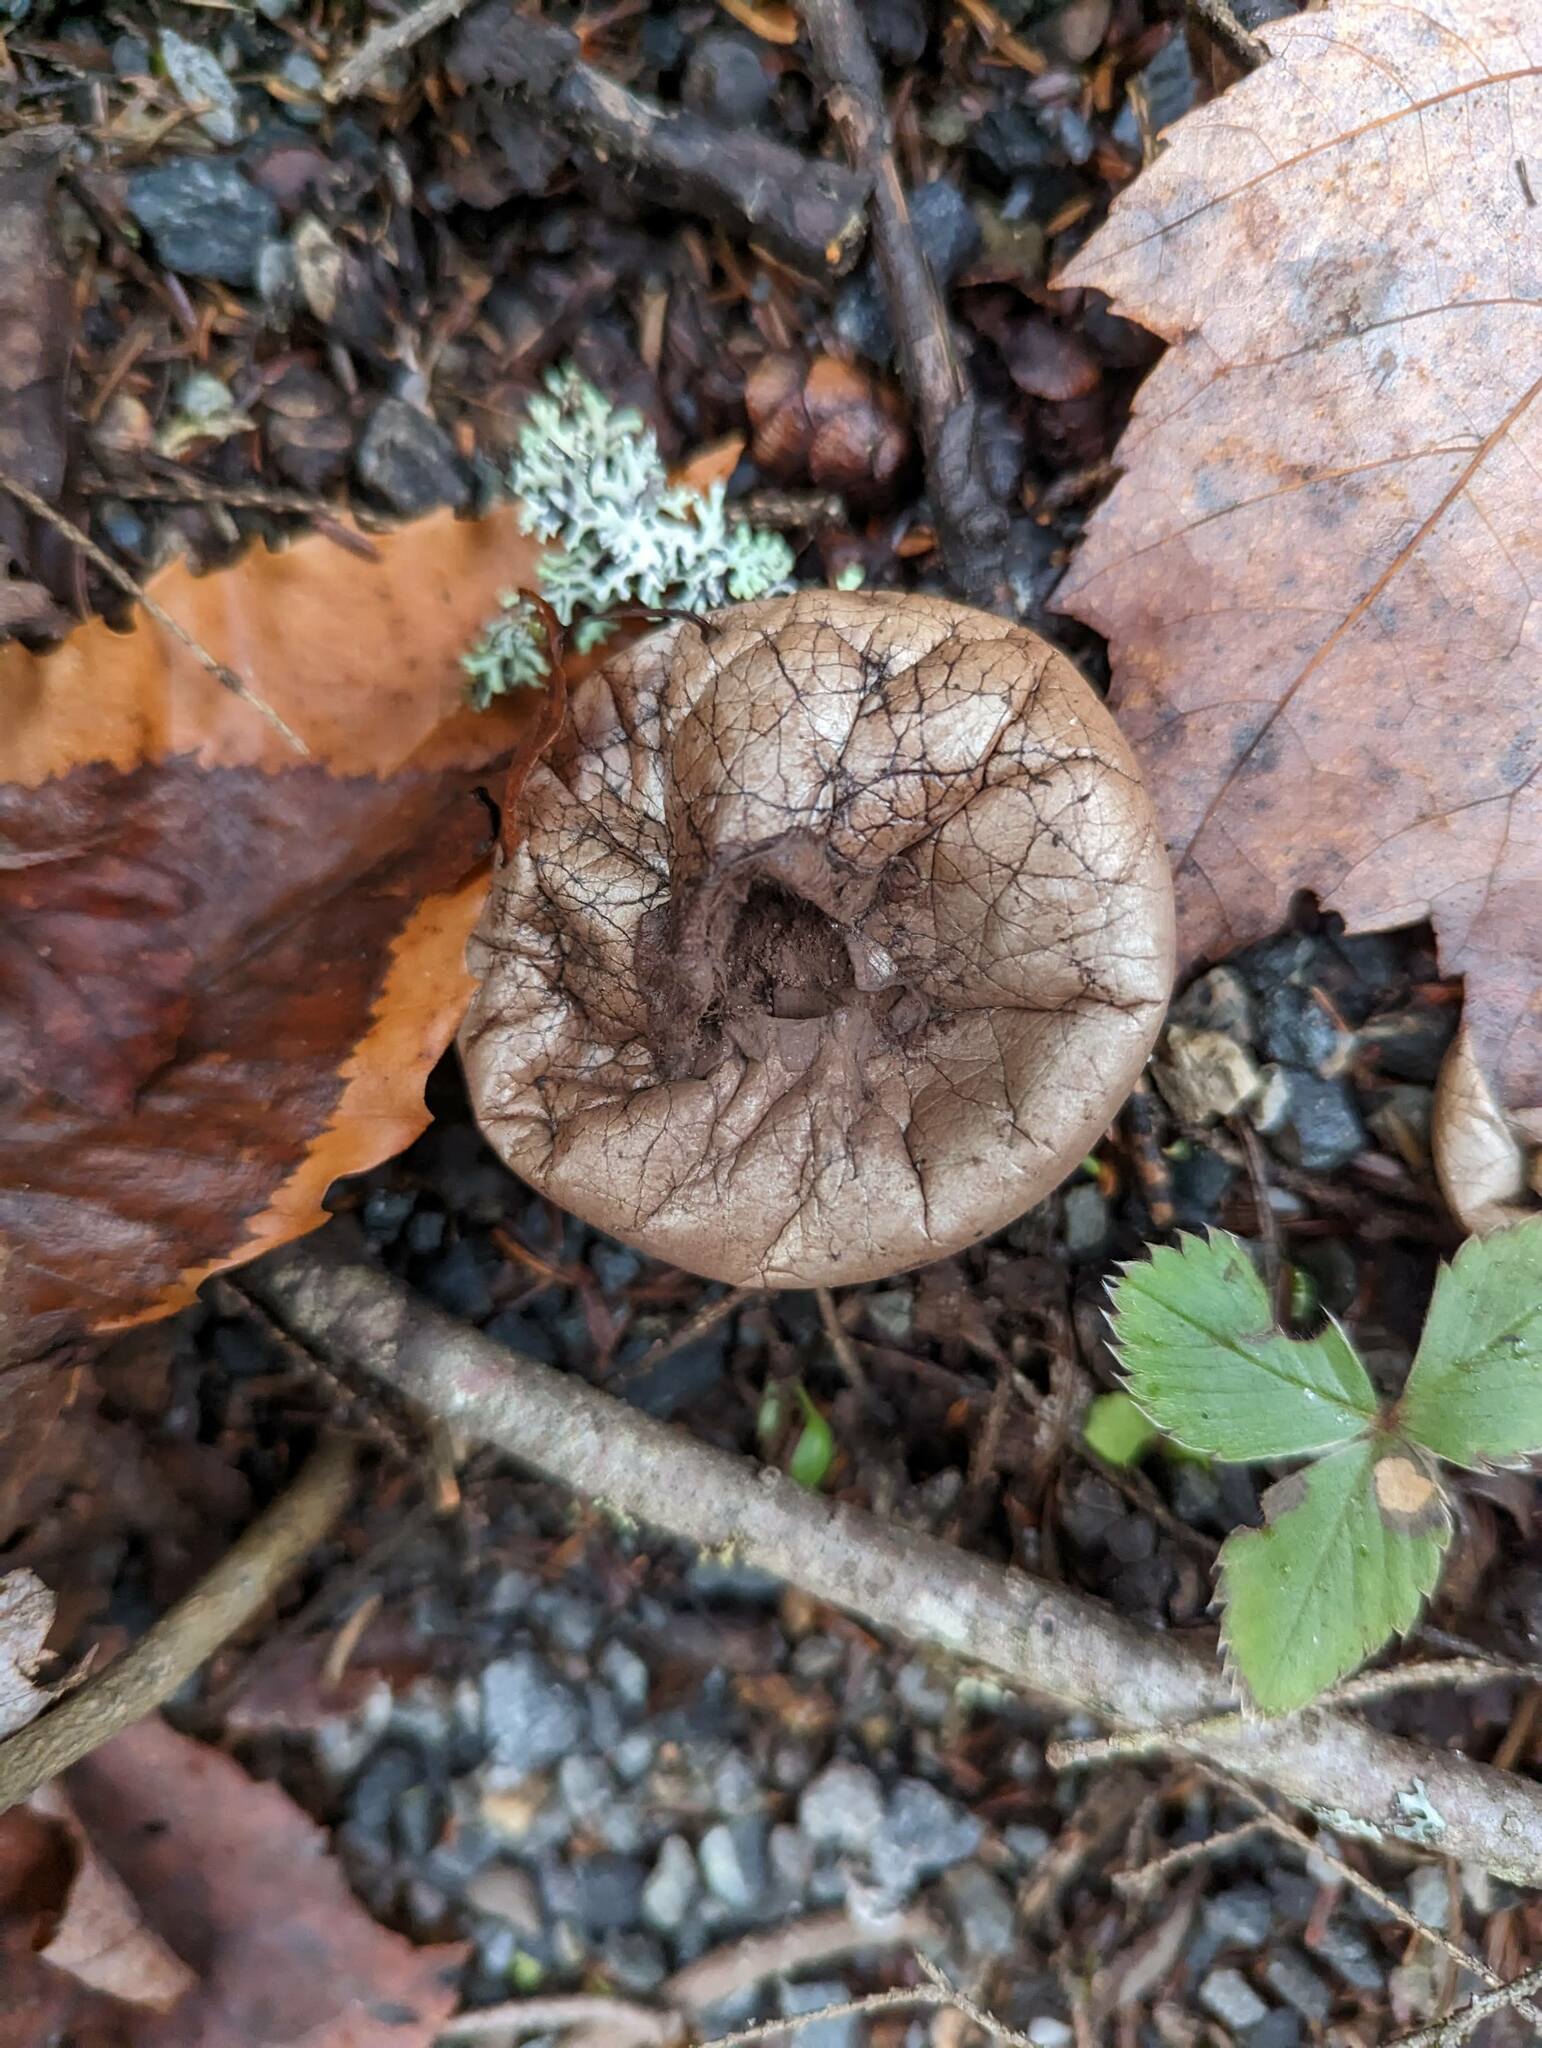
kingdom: Fungi
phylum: Basidiomycota
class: Agaricomycetes
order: Agaricales
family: Lycoperdaceae
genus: Apioperdon
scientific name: Apioperdon pyriforme
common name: Pear-shaped puffball
